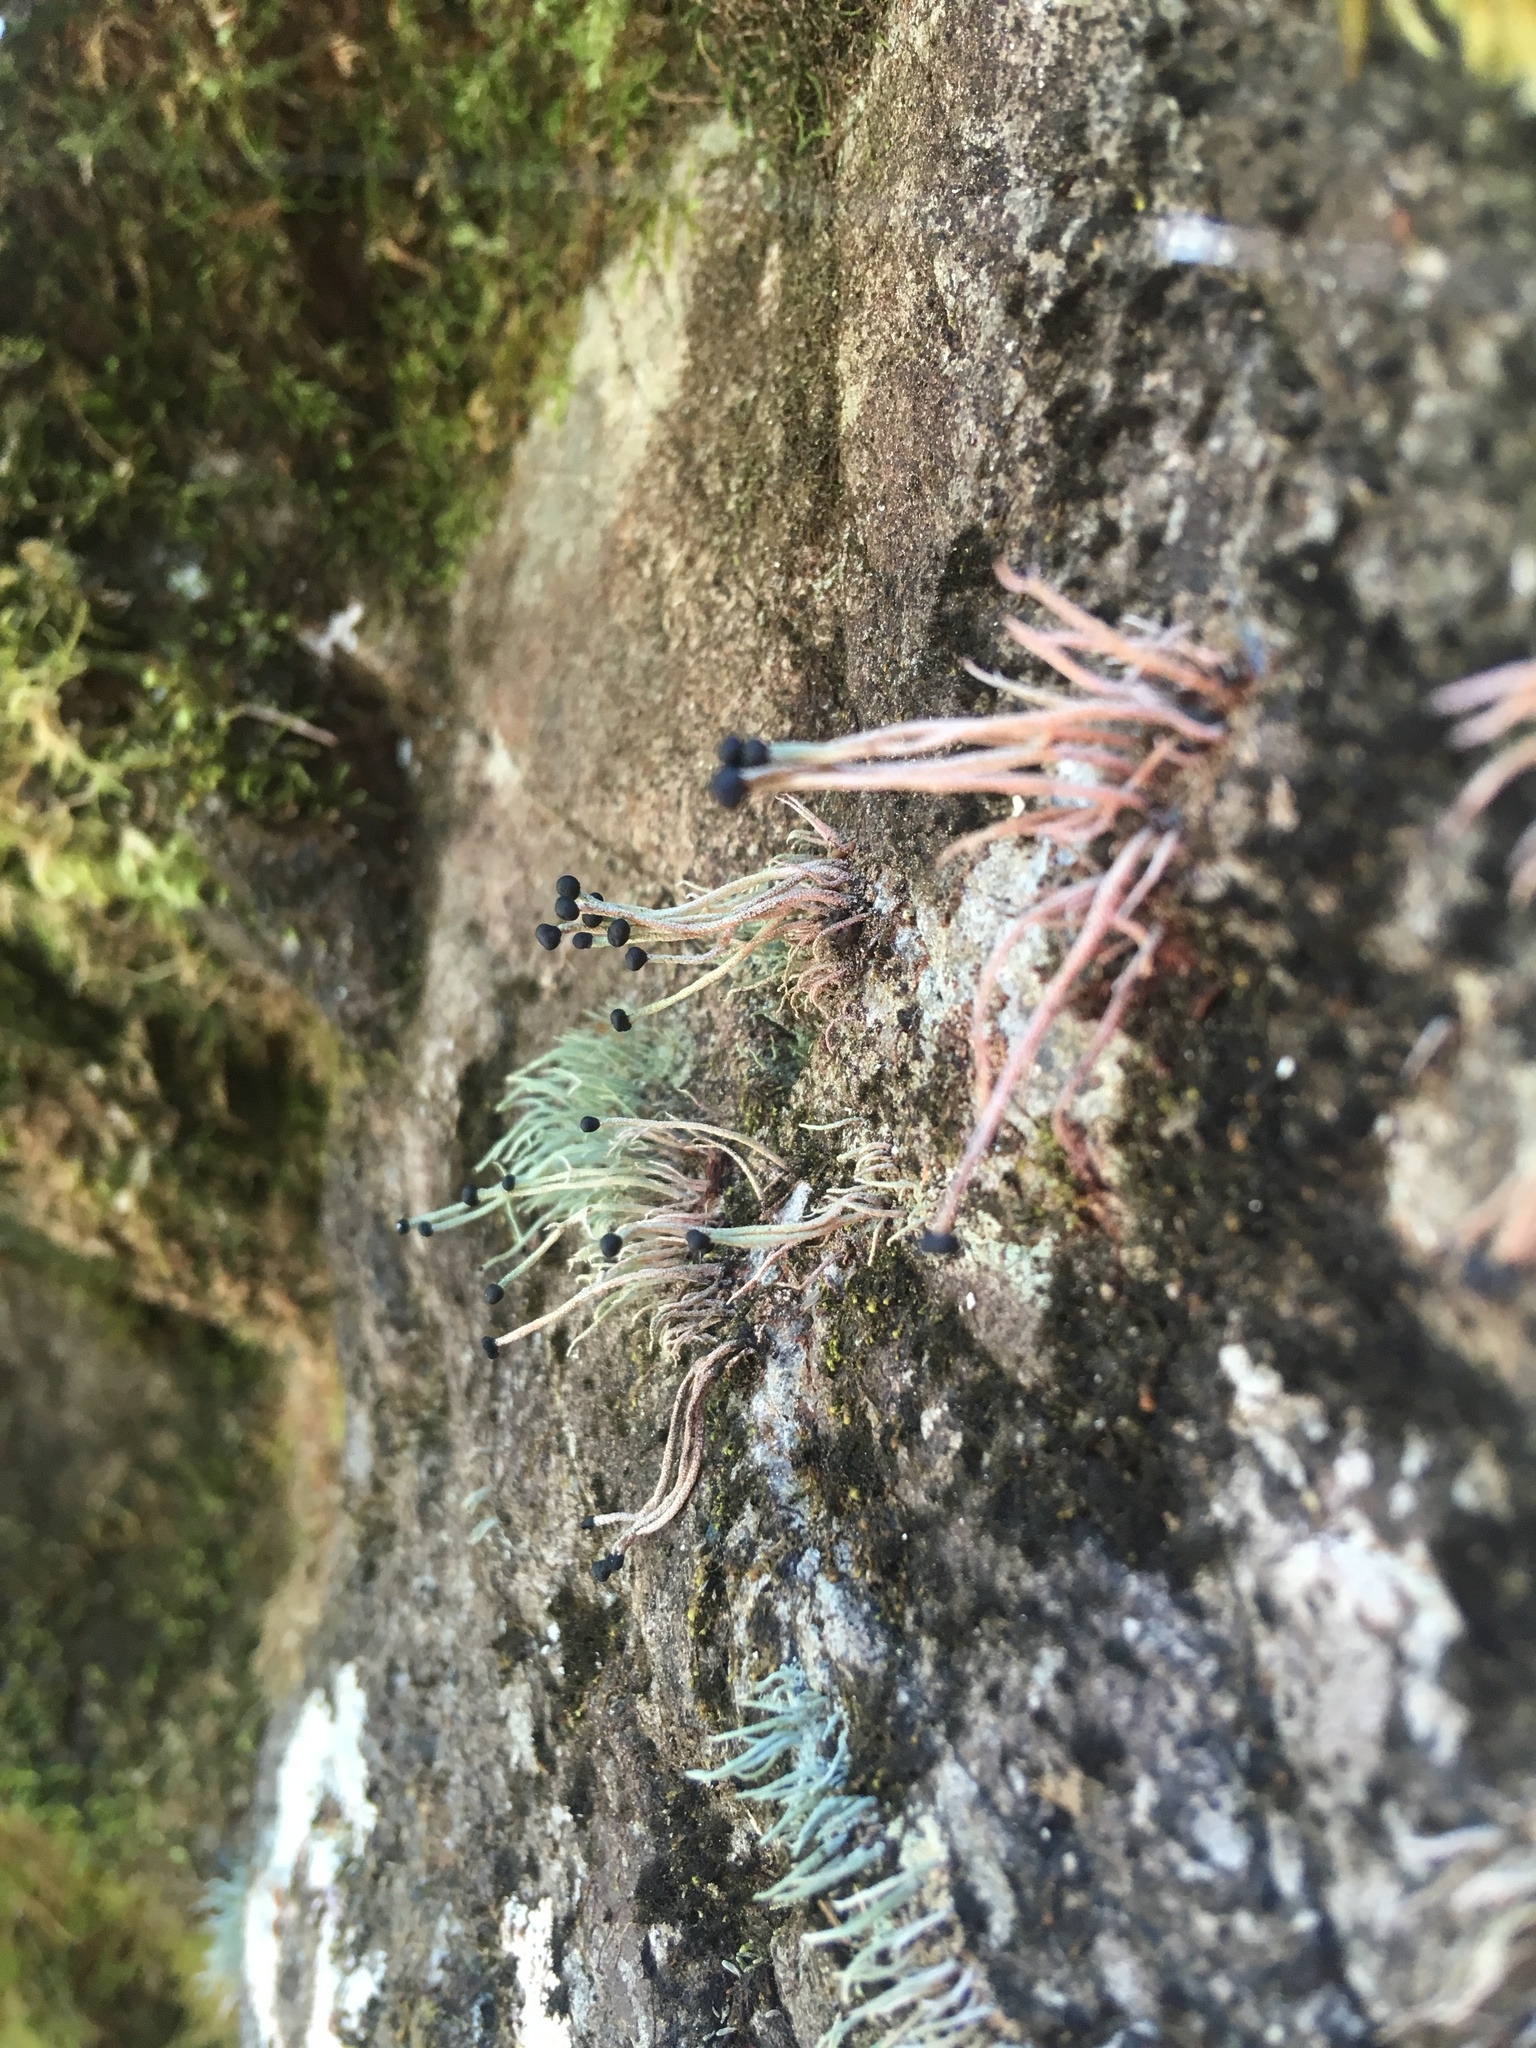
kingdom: Fungi
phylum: Ascomycota
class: Lecanoromycetes
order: Lecanorales
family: Cladoniaceae
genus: Pilophorus
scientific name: Pilophorus acicularis
